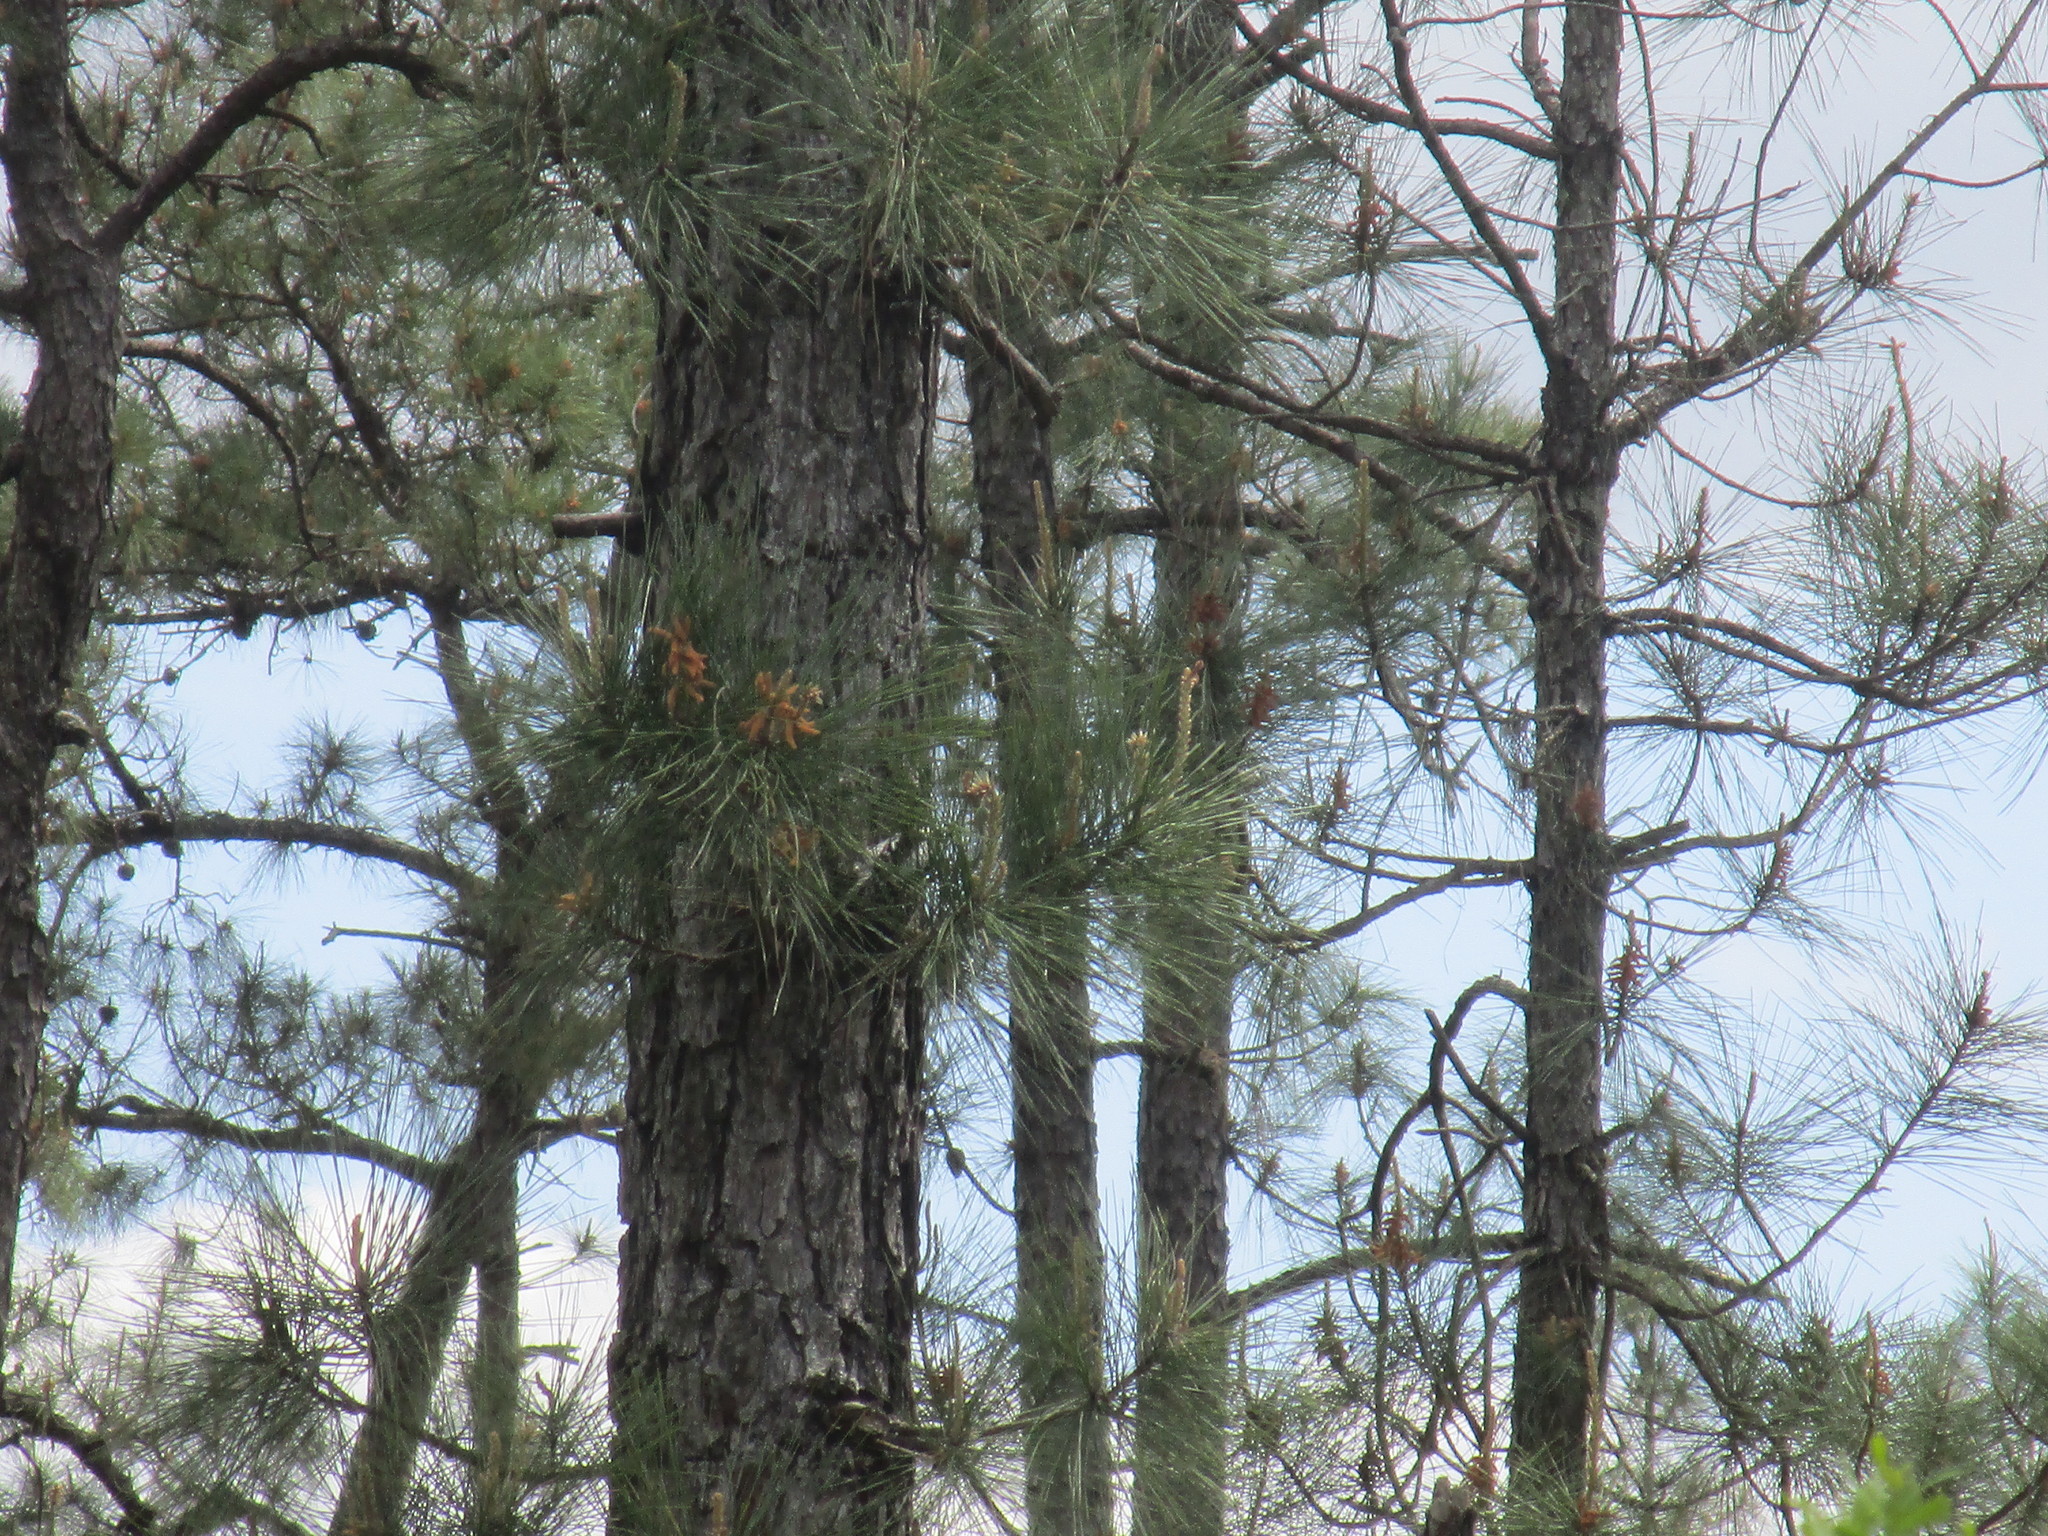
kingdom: Animalia
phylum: Chordata
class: Aves
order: Piciformes
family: Picidae
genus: Dryobates
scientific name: Dryobates pubescens
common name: Downy woodpecker
